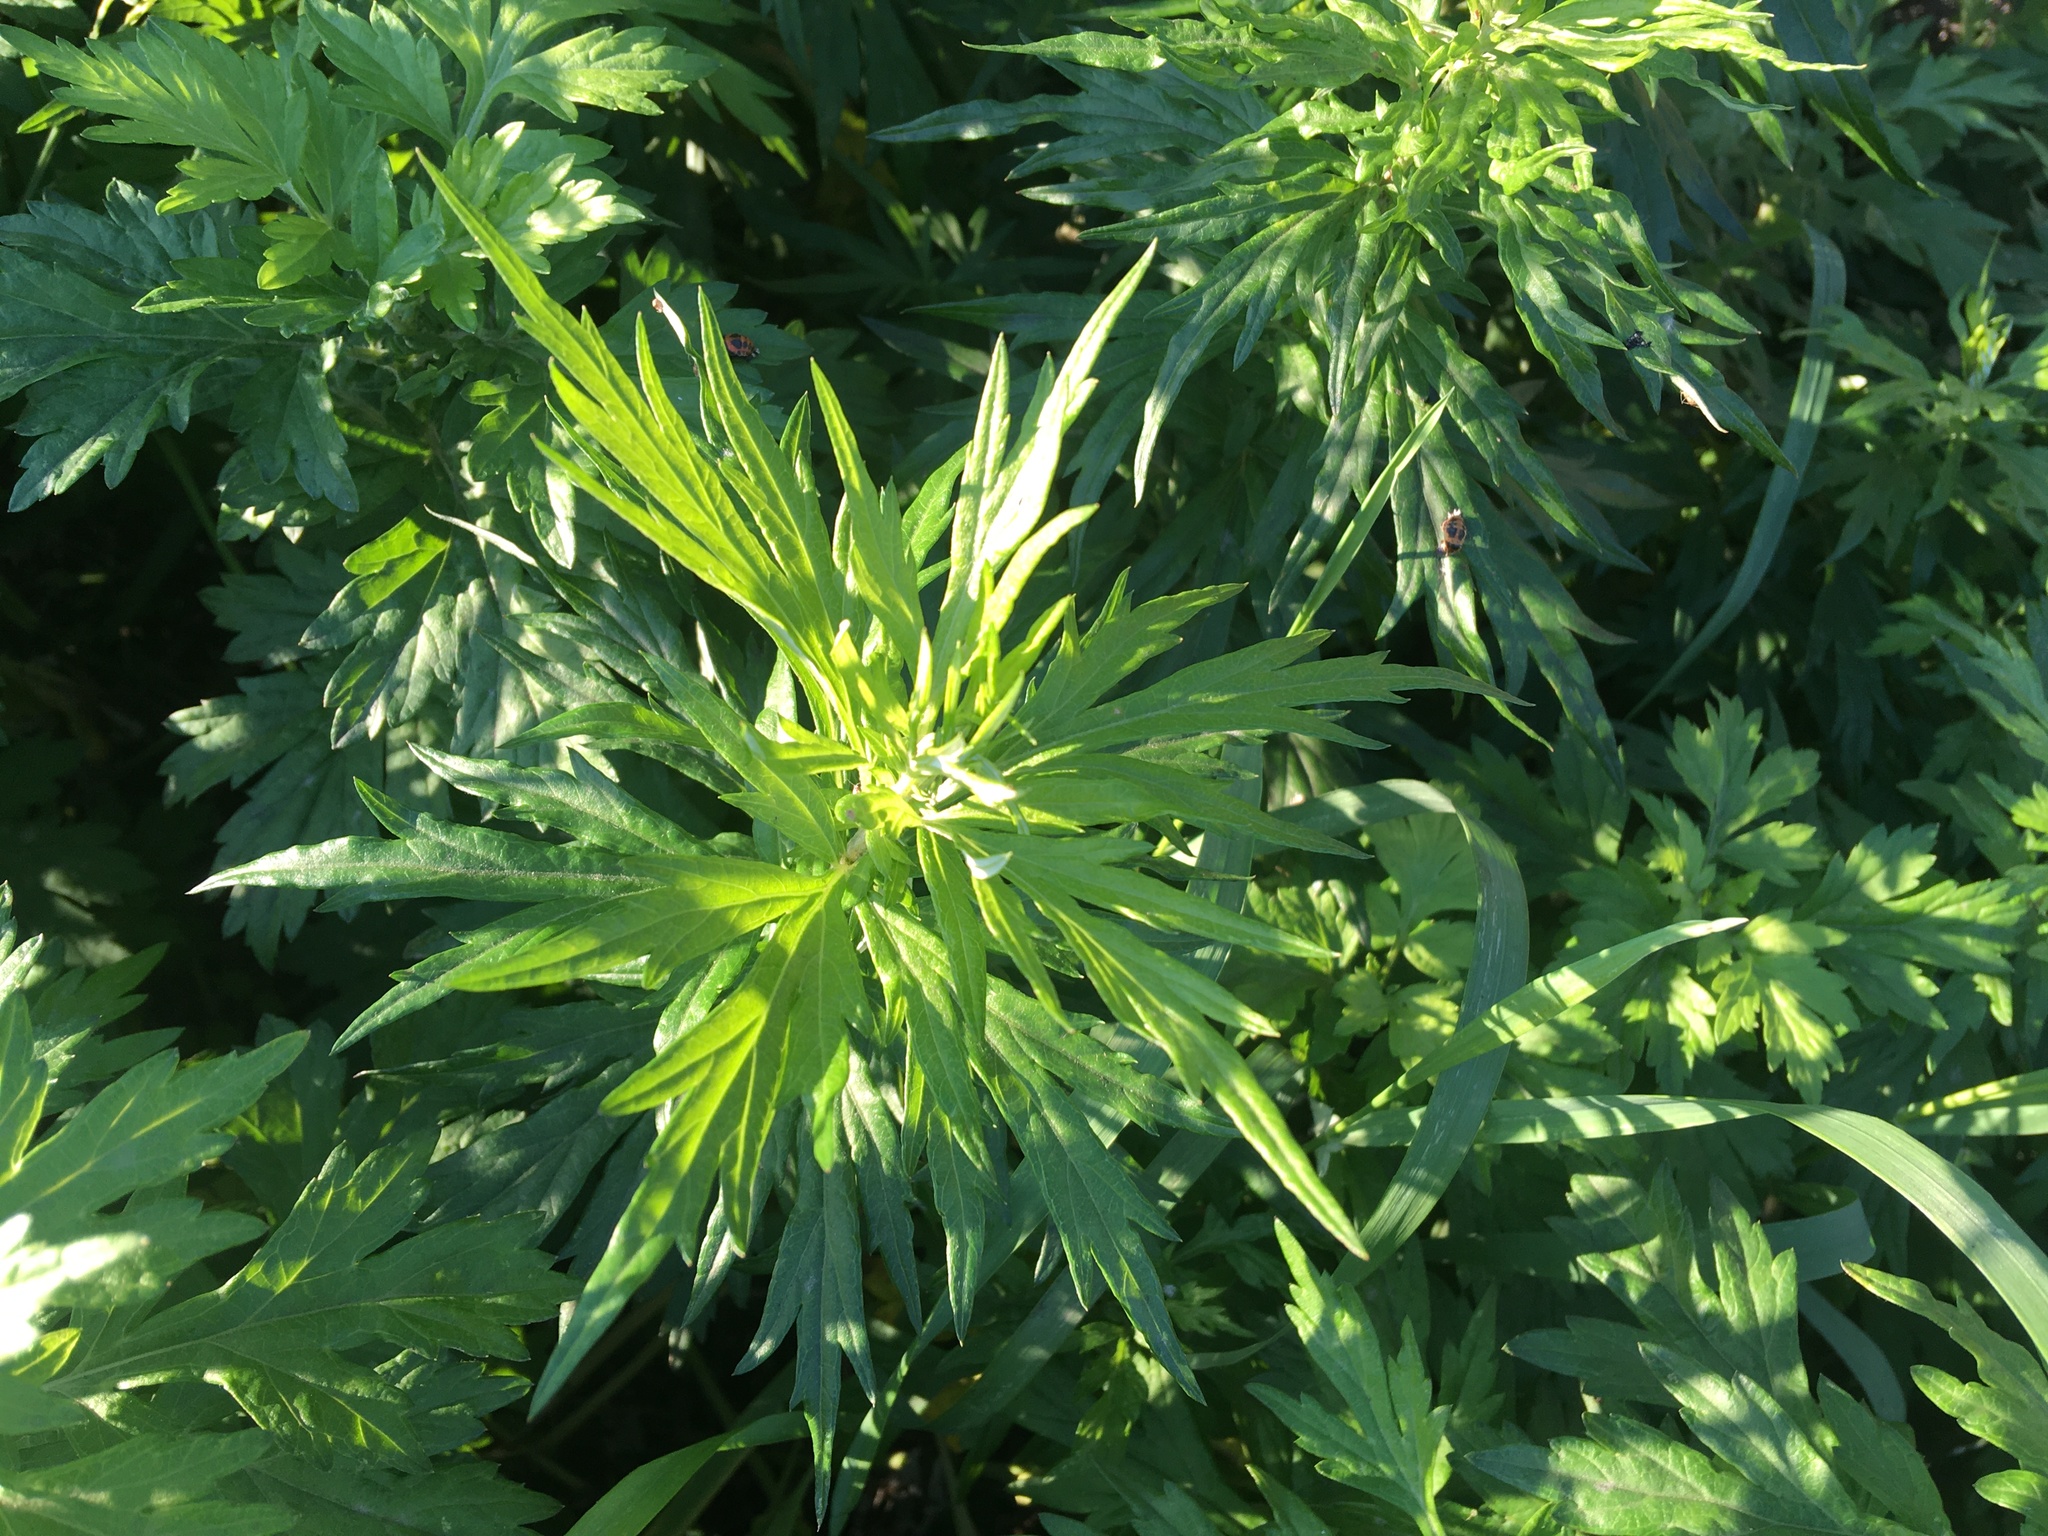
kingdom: Plantae
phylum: Tracheophyta
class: Magnoliopsida
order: Asterales
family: Asteraceae
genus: Artemisia
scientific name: Artemisia vulgaris
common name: Mugwort
